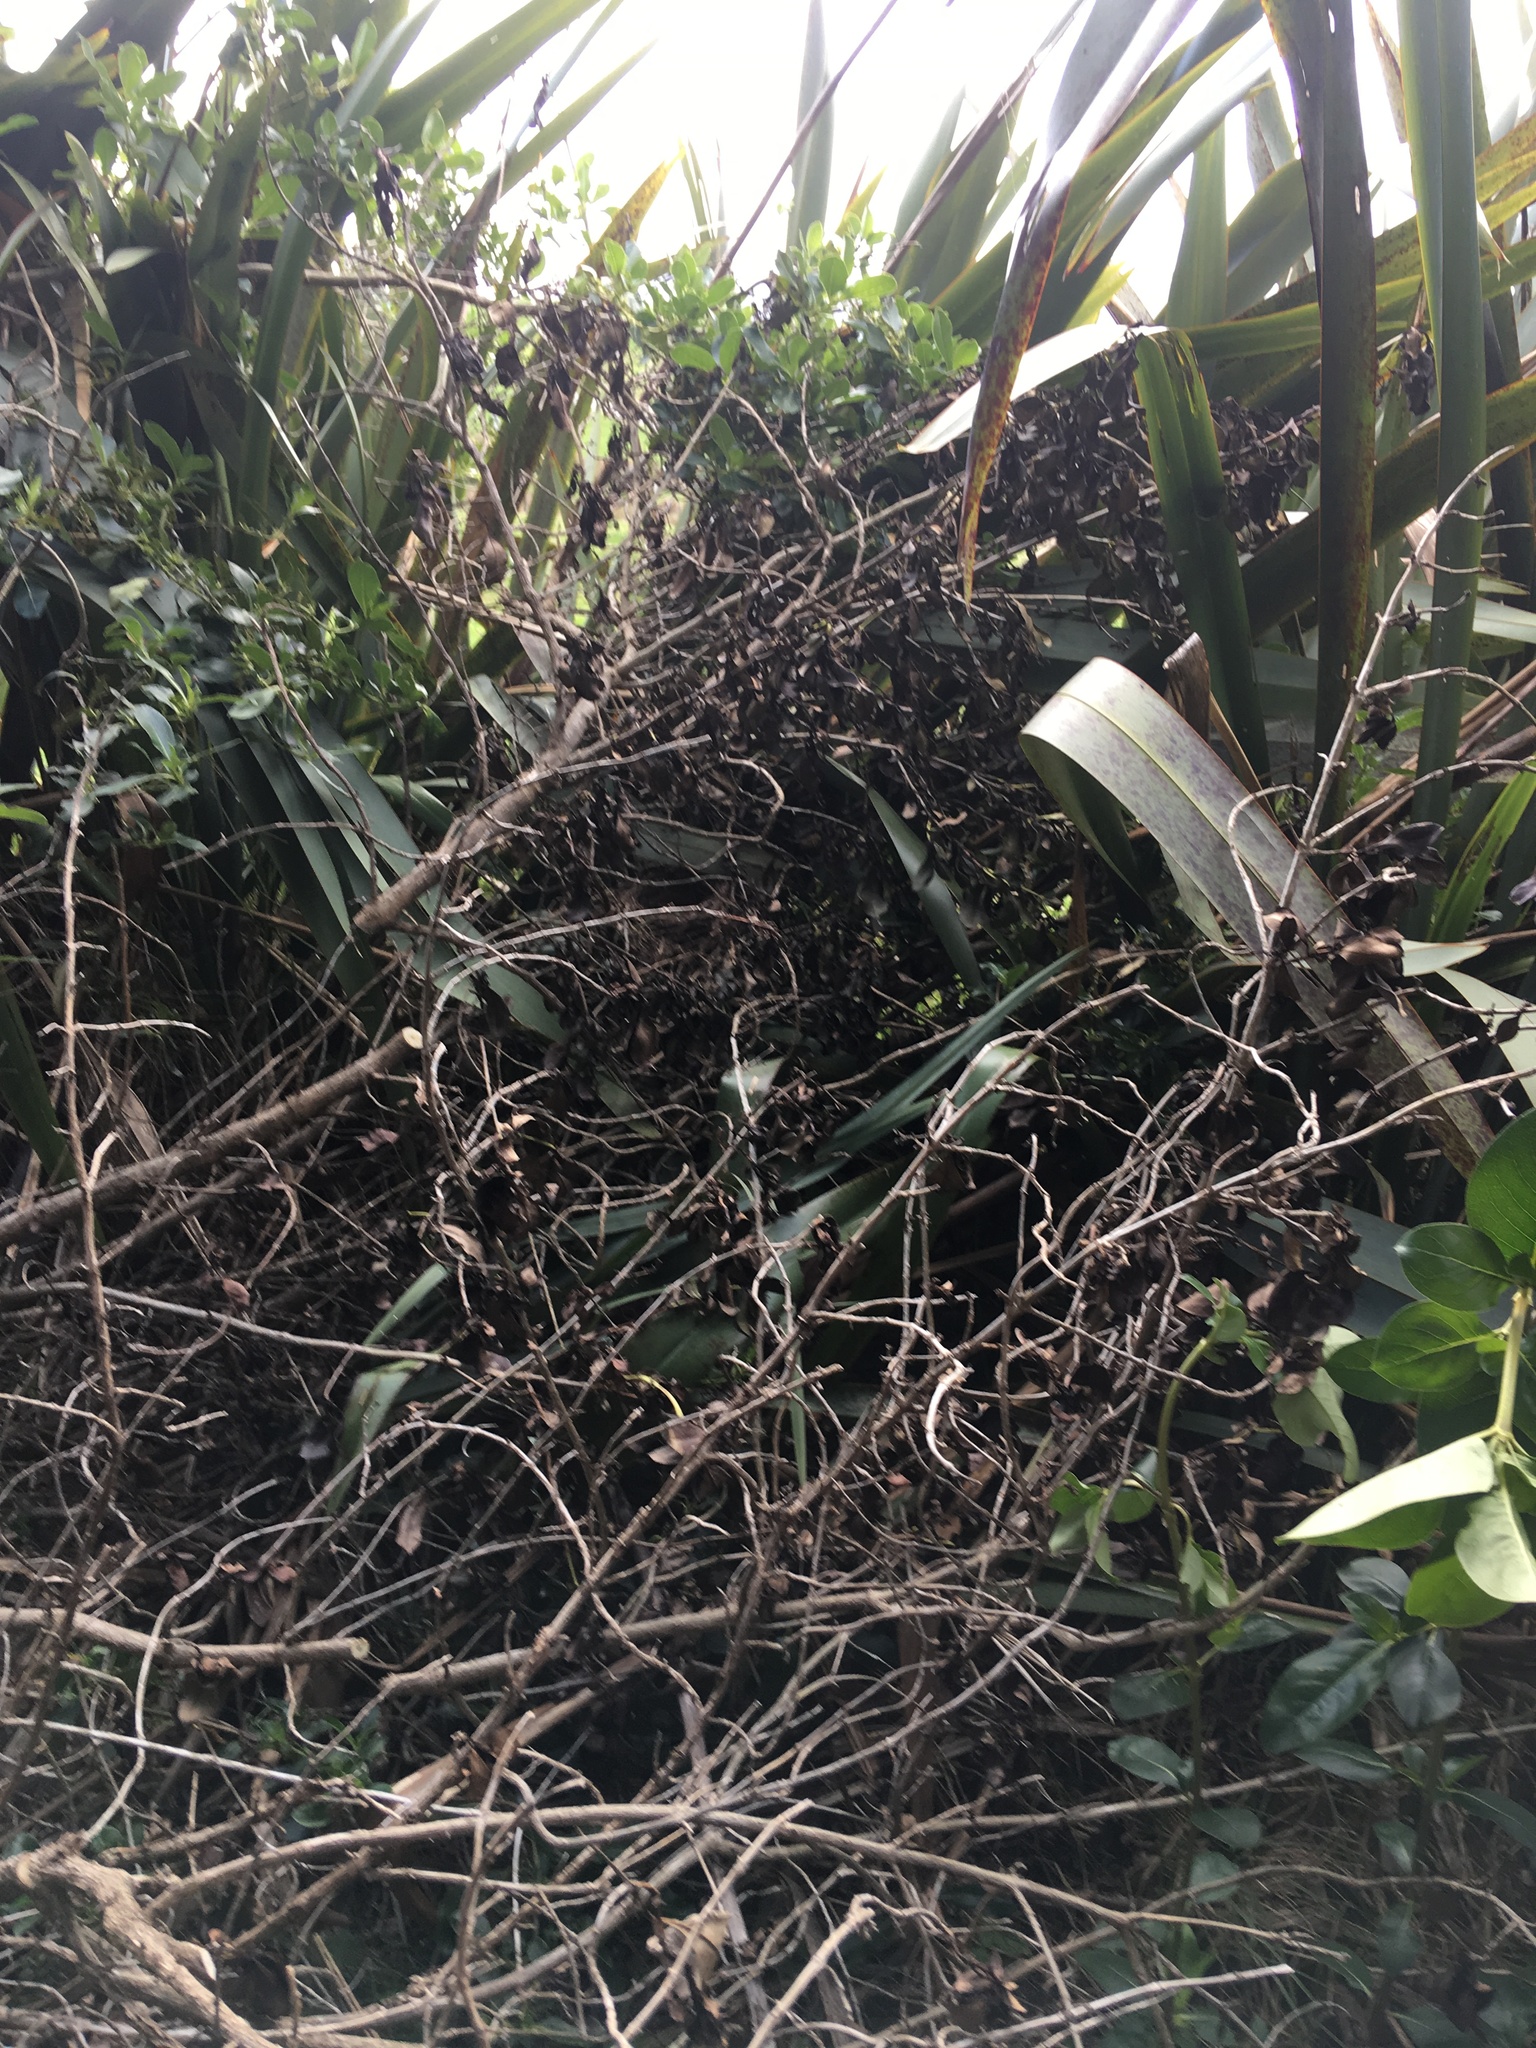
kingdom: Animalia
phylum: Chordata
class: Aves
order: Passeriformes
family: Turdidae
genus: Turdus
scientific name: Turdus philomelos
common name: Song thrush
